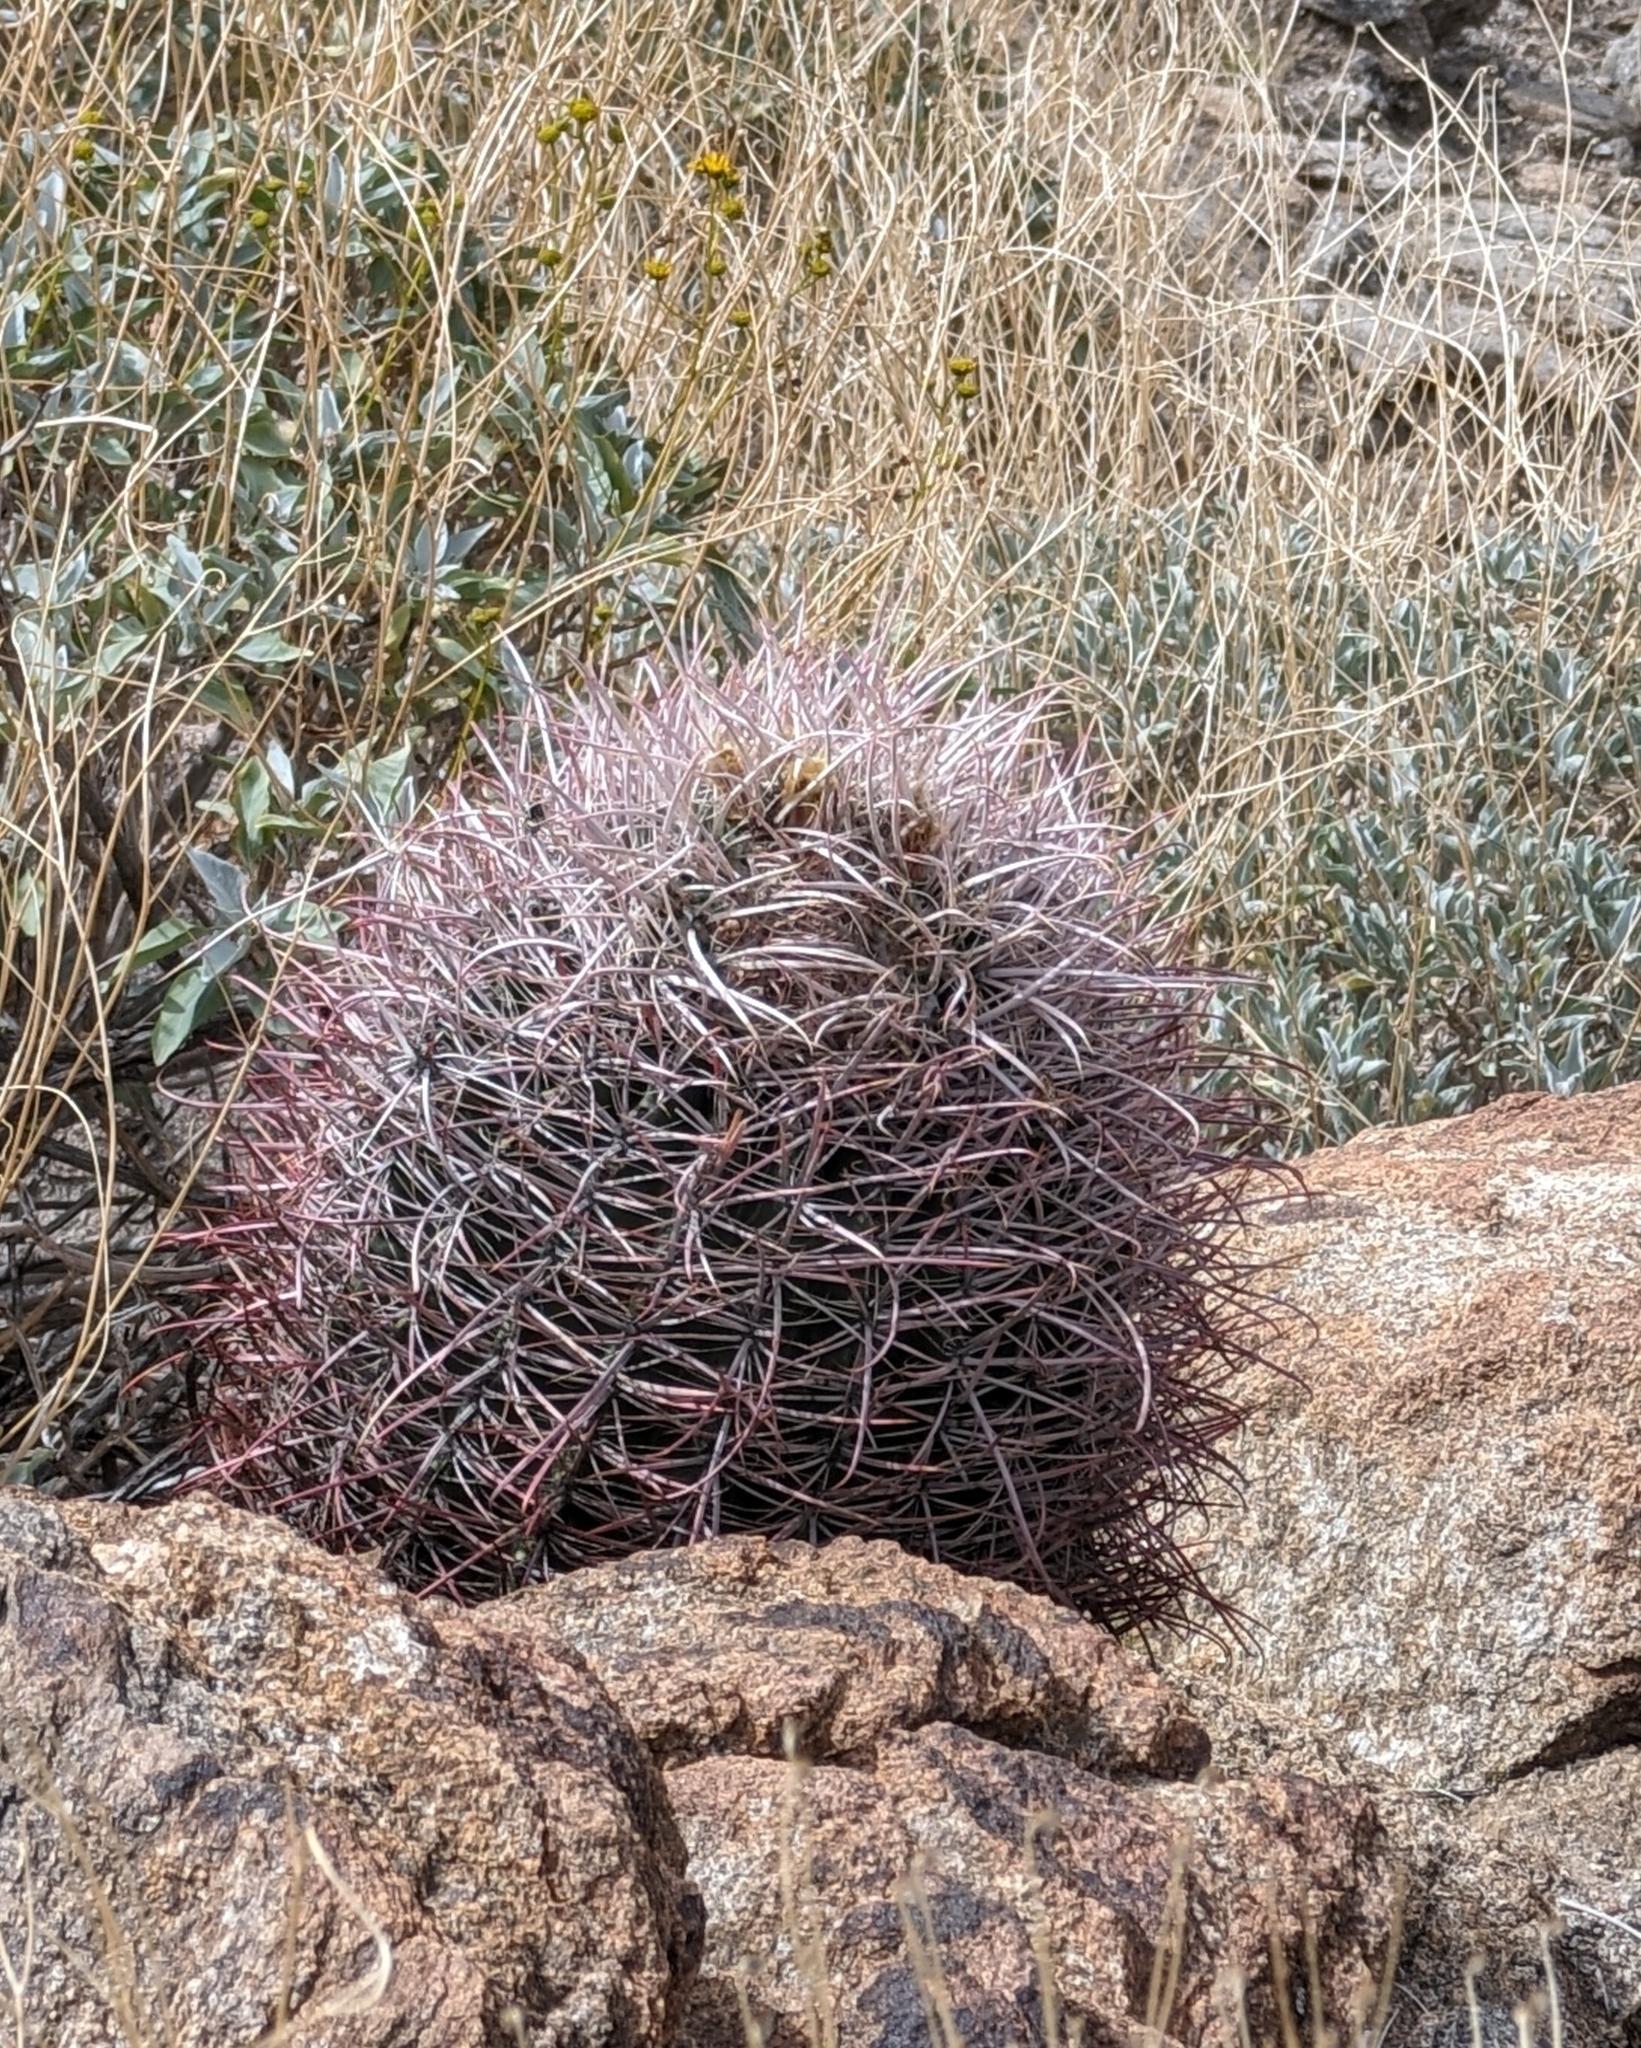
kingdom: Plantae
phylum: Tracheophyta
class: Magnoliopsida
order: Caryophyllales
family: Cactaceae
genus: Ferocactus
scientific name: Ferocactus cylindraceus
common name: California barrel cactus
